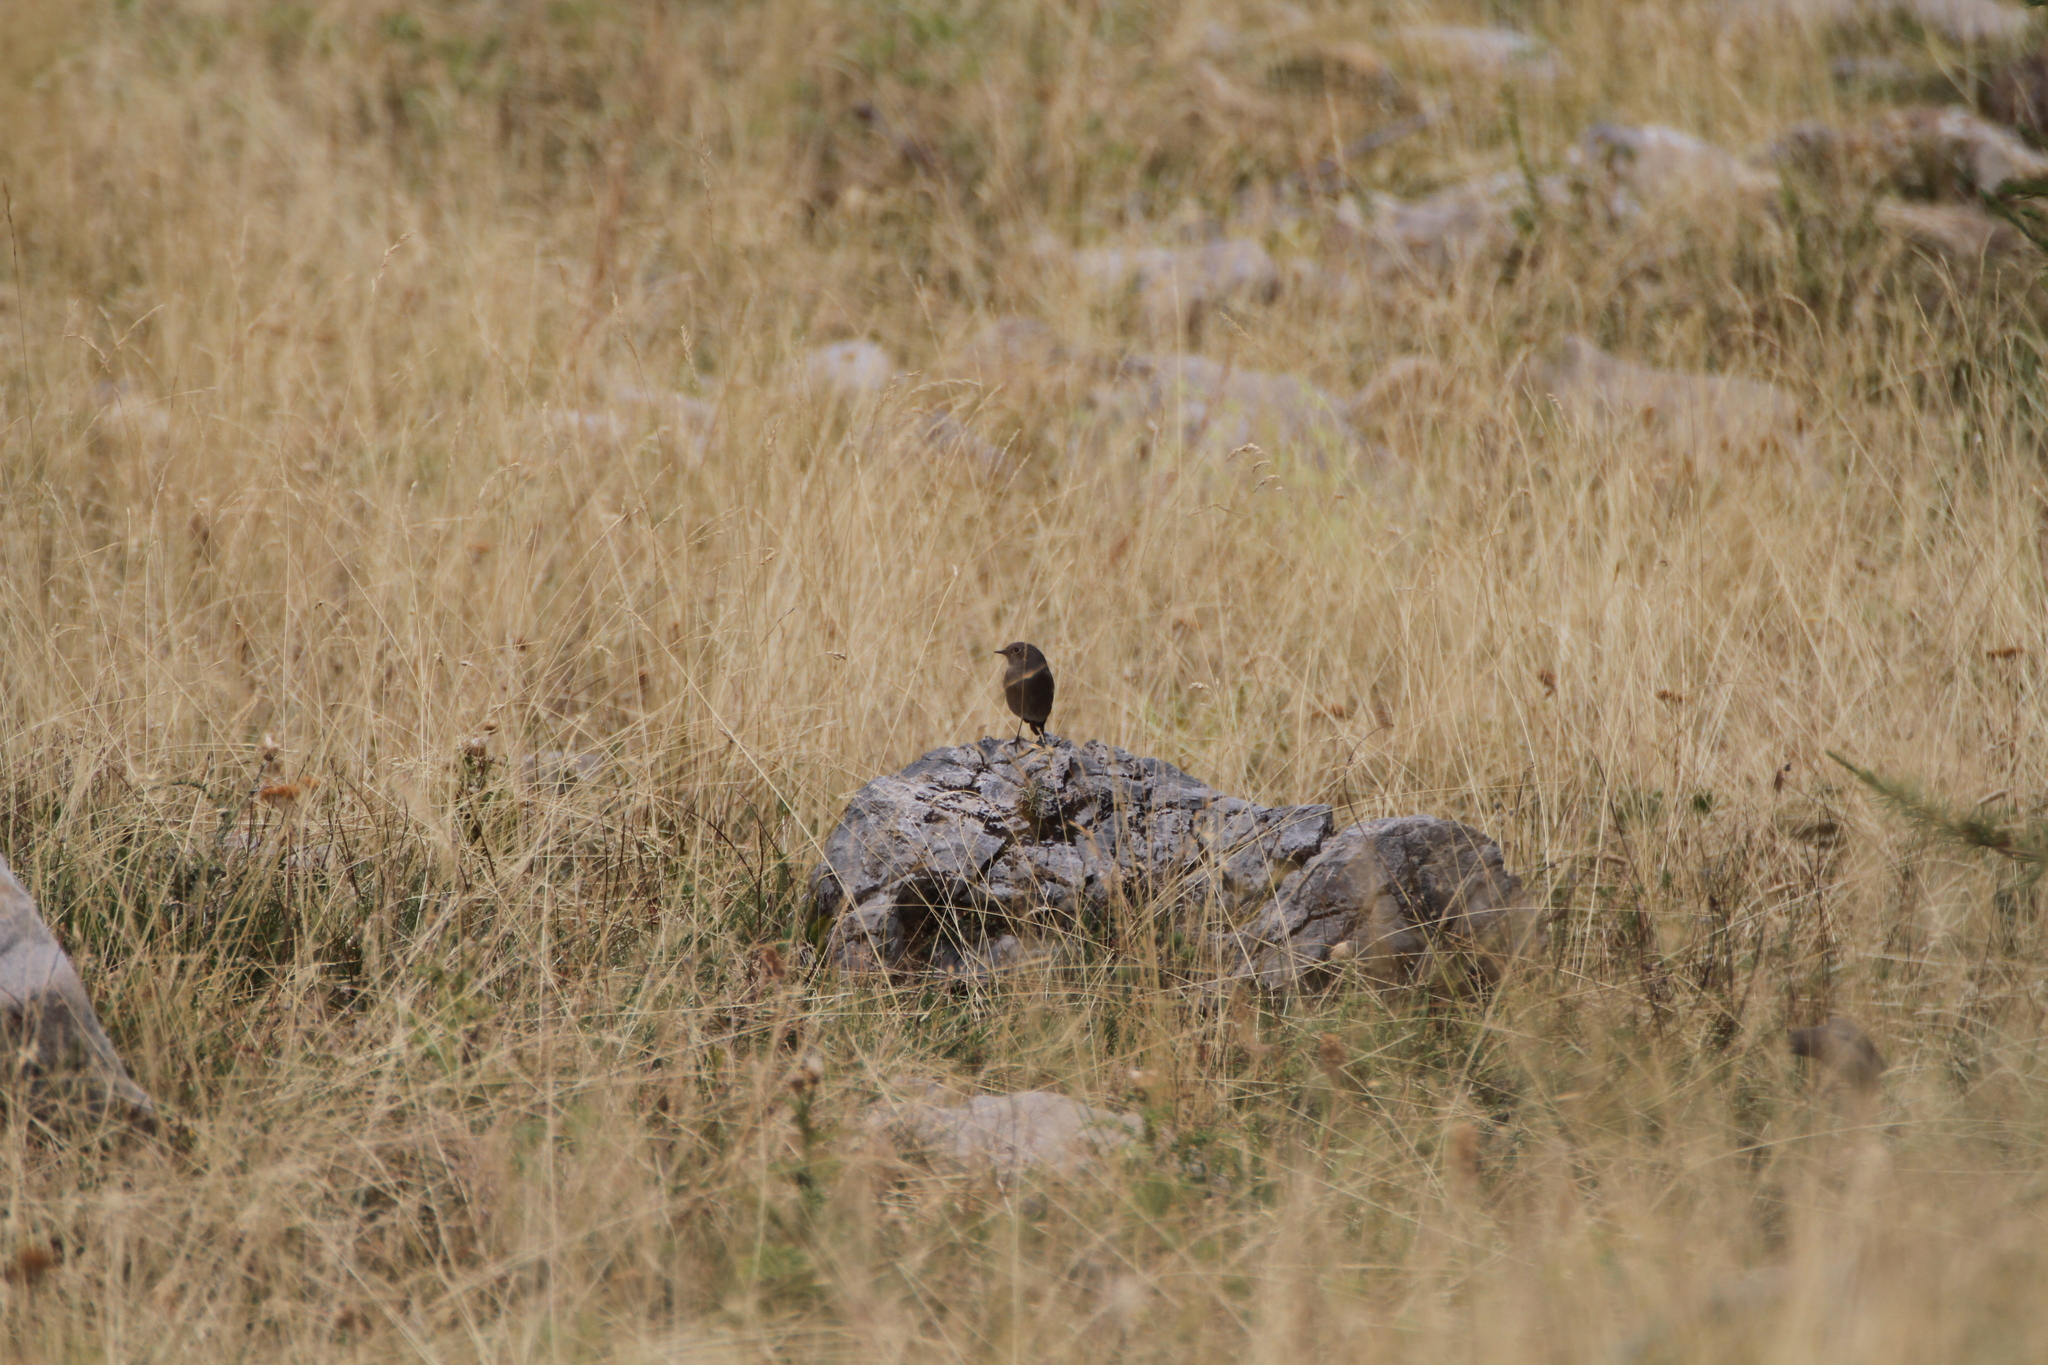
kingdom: Animalia
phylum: Chordata
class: Aves
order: Passeriformes
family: Muscicapidae
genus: Phoenicurus
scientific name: Phoenicurus ochruros
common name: Black redstart
